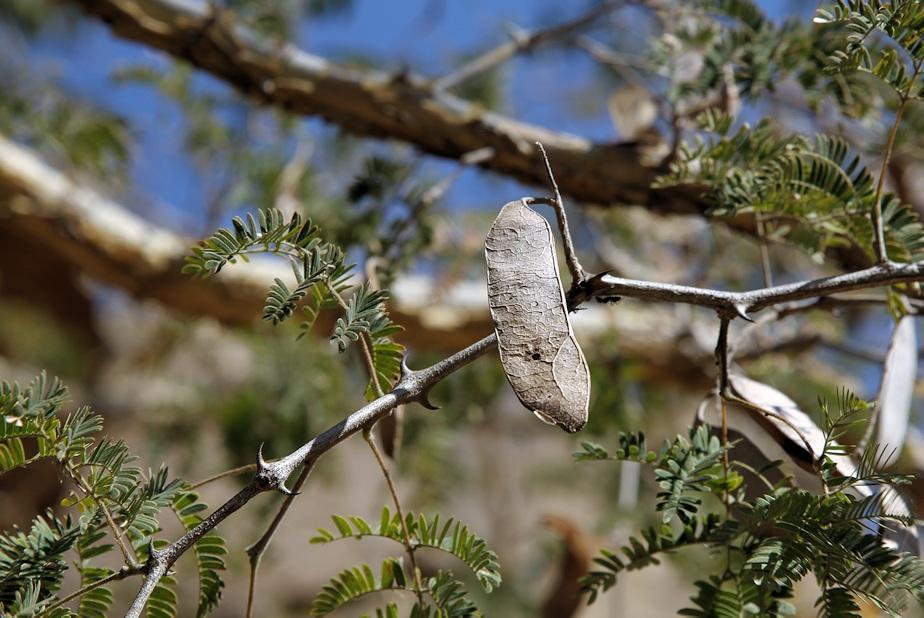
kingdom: Plantae
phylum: Tracheophyta
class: Magnoliopsida
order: Fabales
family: Fabaceae
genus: Senegalia
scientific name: Senegalia erubescens
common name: Bluethorn
